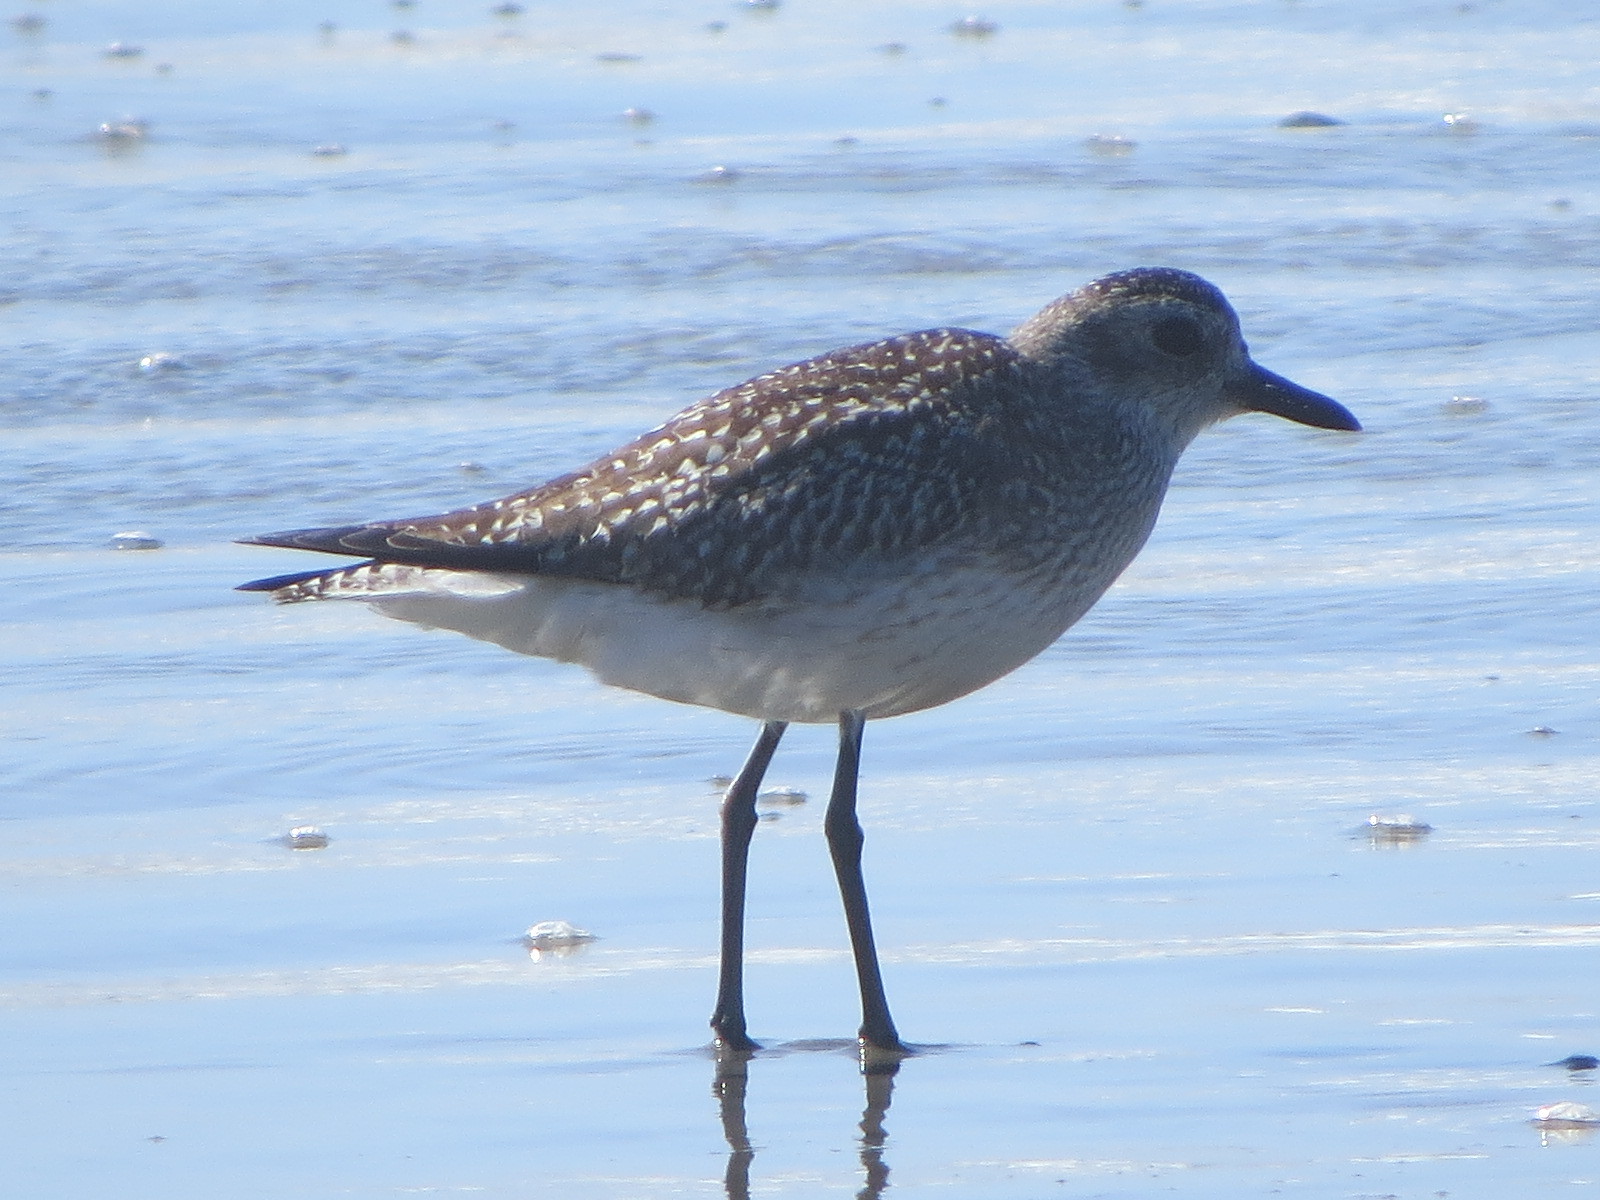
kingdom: Animalia
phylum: Chordata
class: Aves
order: Charadriiformes
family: Charadriidae
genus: Pluvialis
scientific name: Pluvialis squatarola
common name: Grey plover
